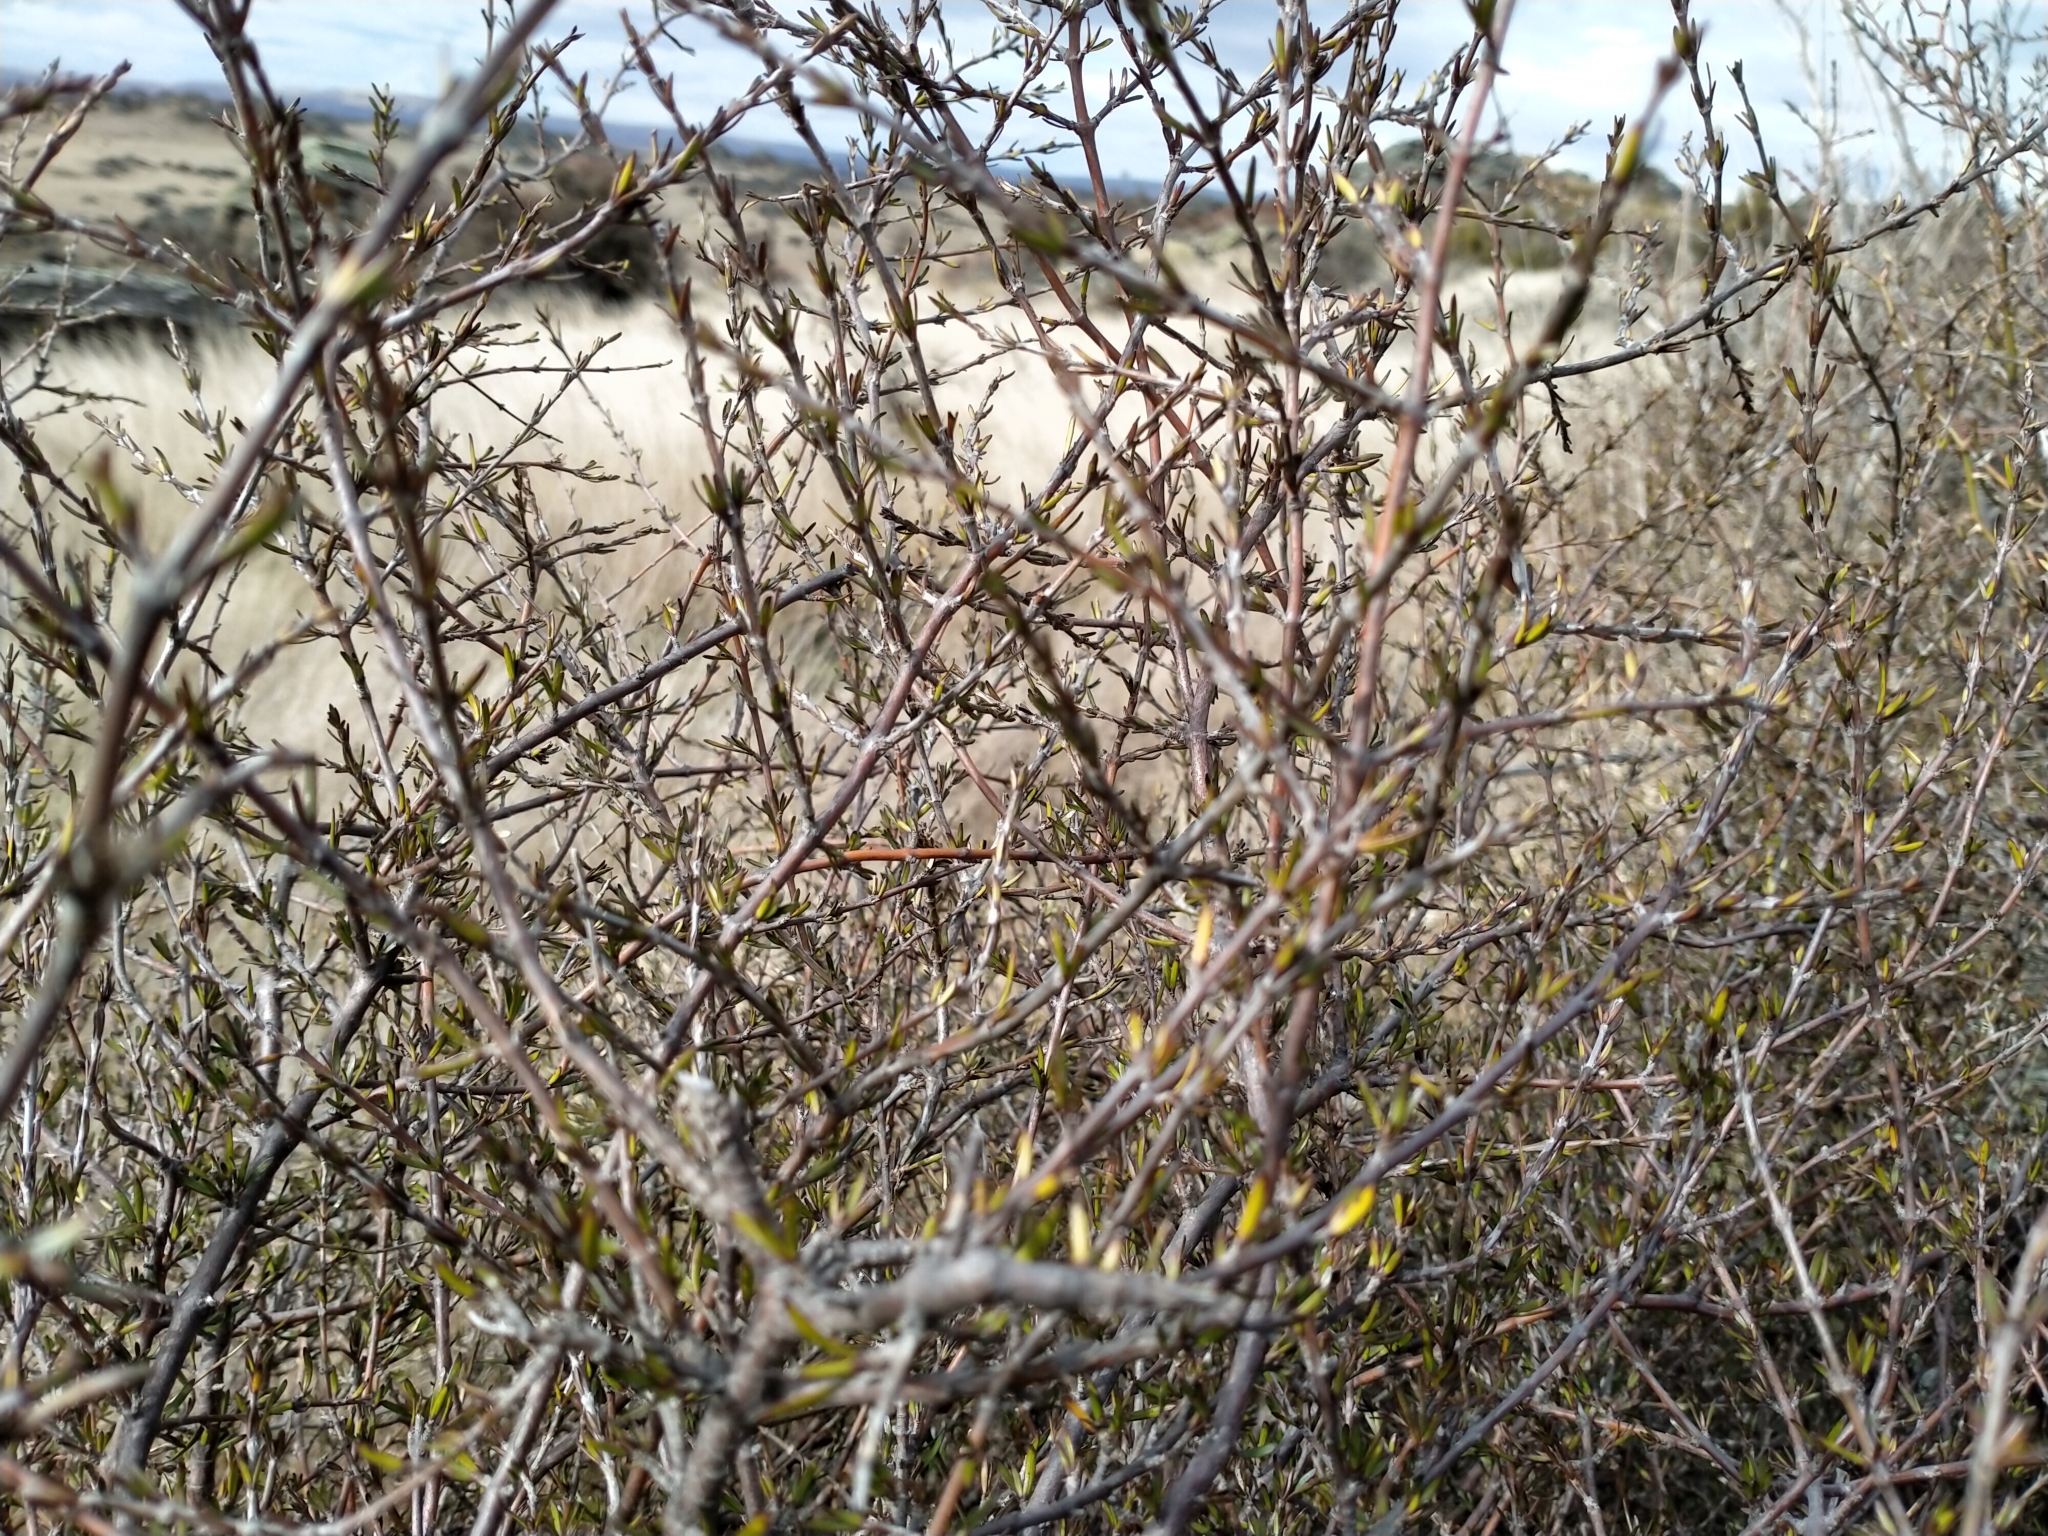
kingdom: Plantae
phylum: Tracheophyta
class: Magnoliopsida
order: Gentianales
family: Rubiaceae
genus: Coprosma
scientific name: Coprosma intertexta
